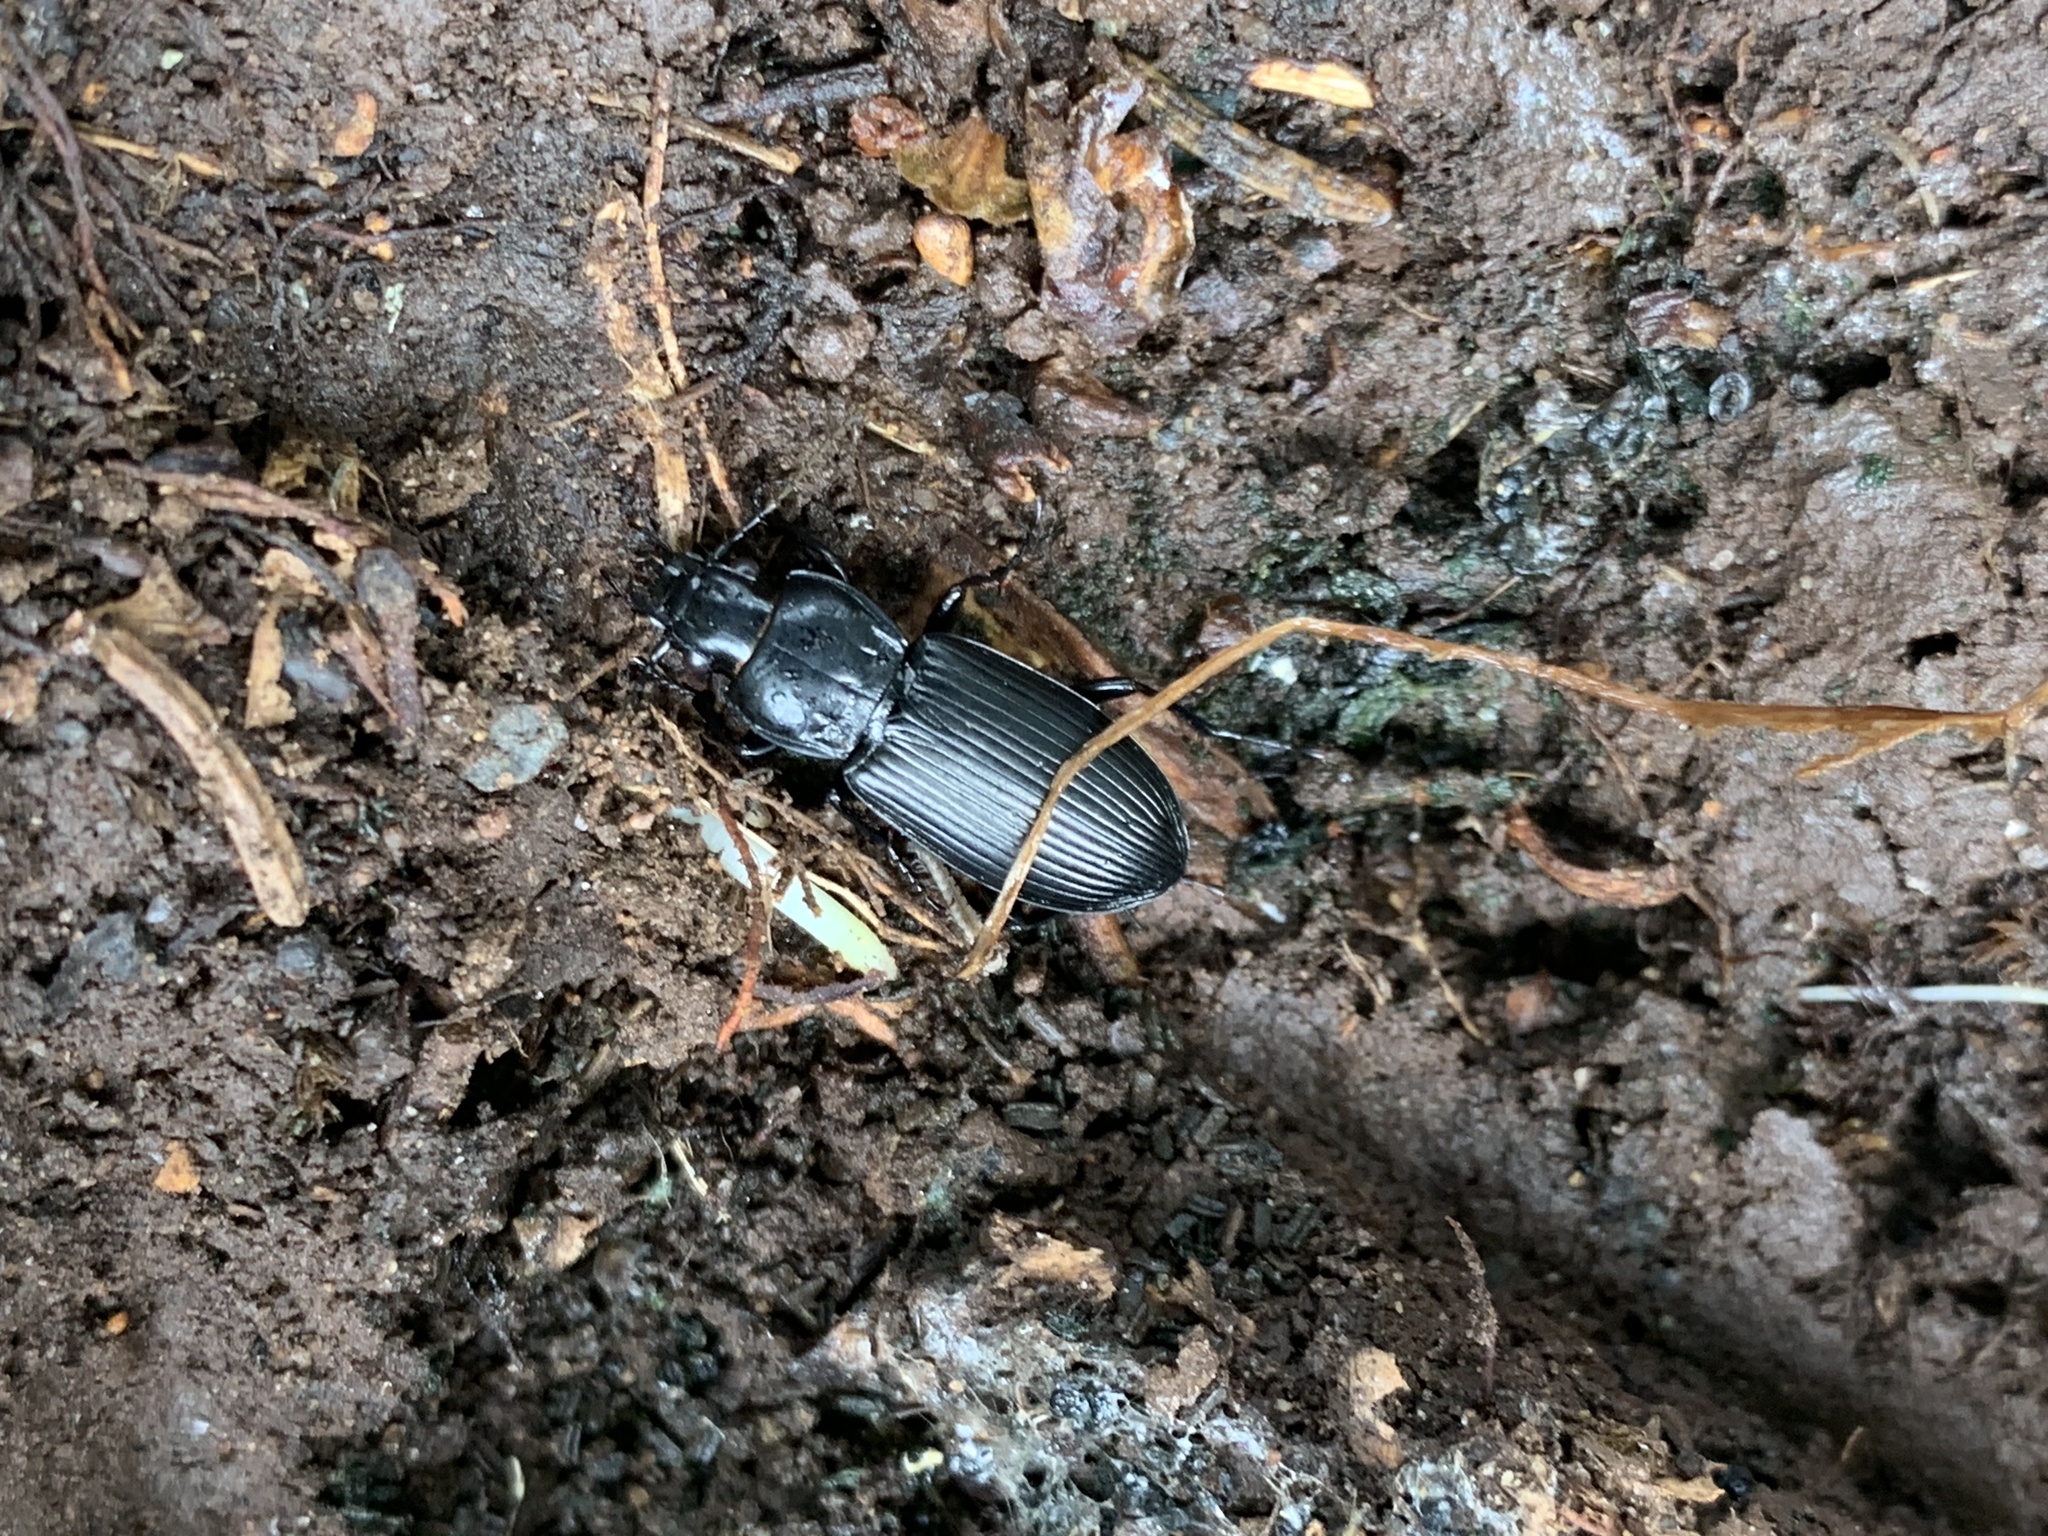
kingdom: Animalia
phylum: Arthropoda
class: Insecta
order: Coleoptera
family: Carabidae
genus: Pterostichus
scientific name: Pterostichus melanarius
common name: European dark harp ground beetle
